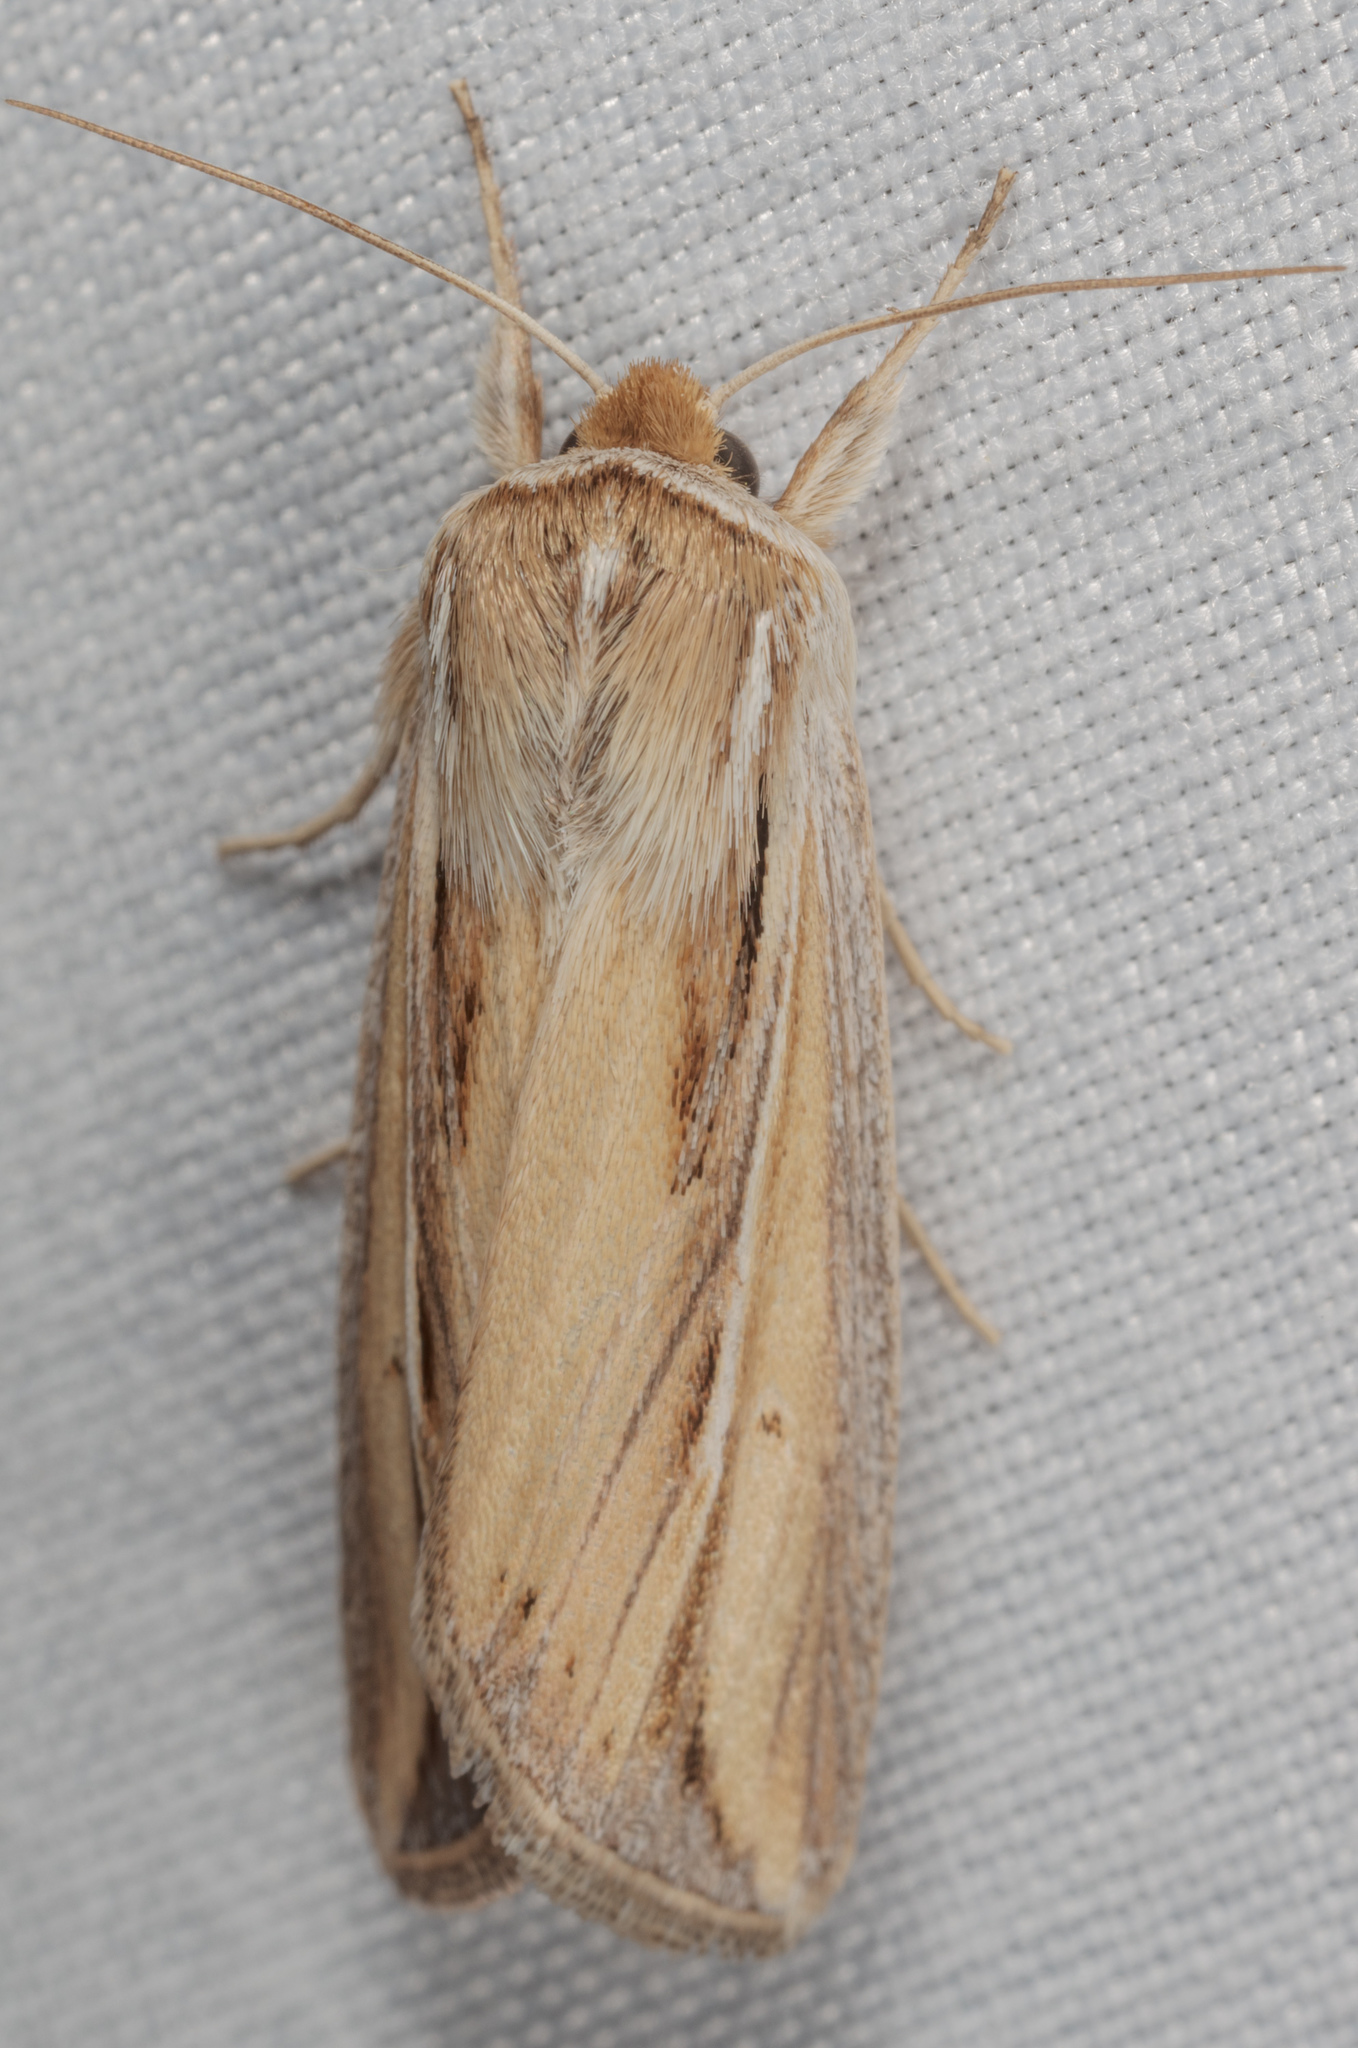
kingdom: Animalia
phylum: Arthropoda
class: Insecta
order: Lepidoptera
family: Noctuidae
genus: Dargida
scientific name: Dargida diffusa
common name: Wheat head armyworm
